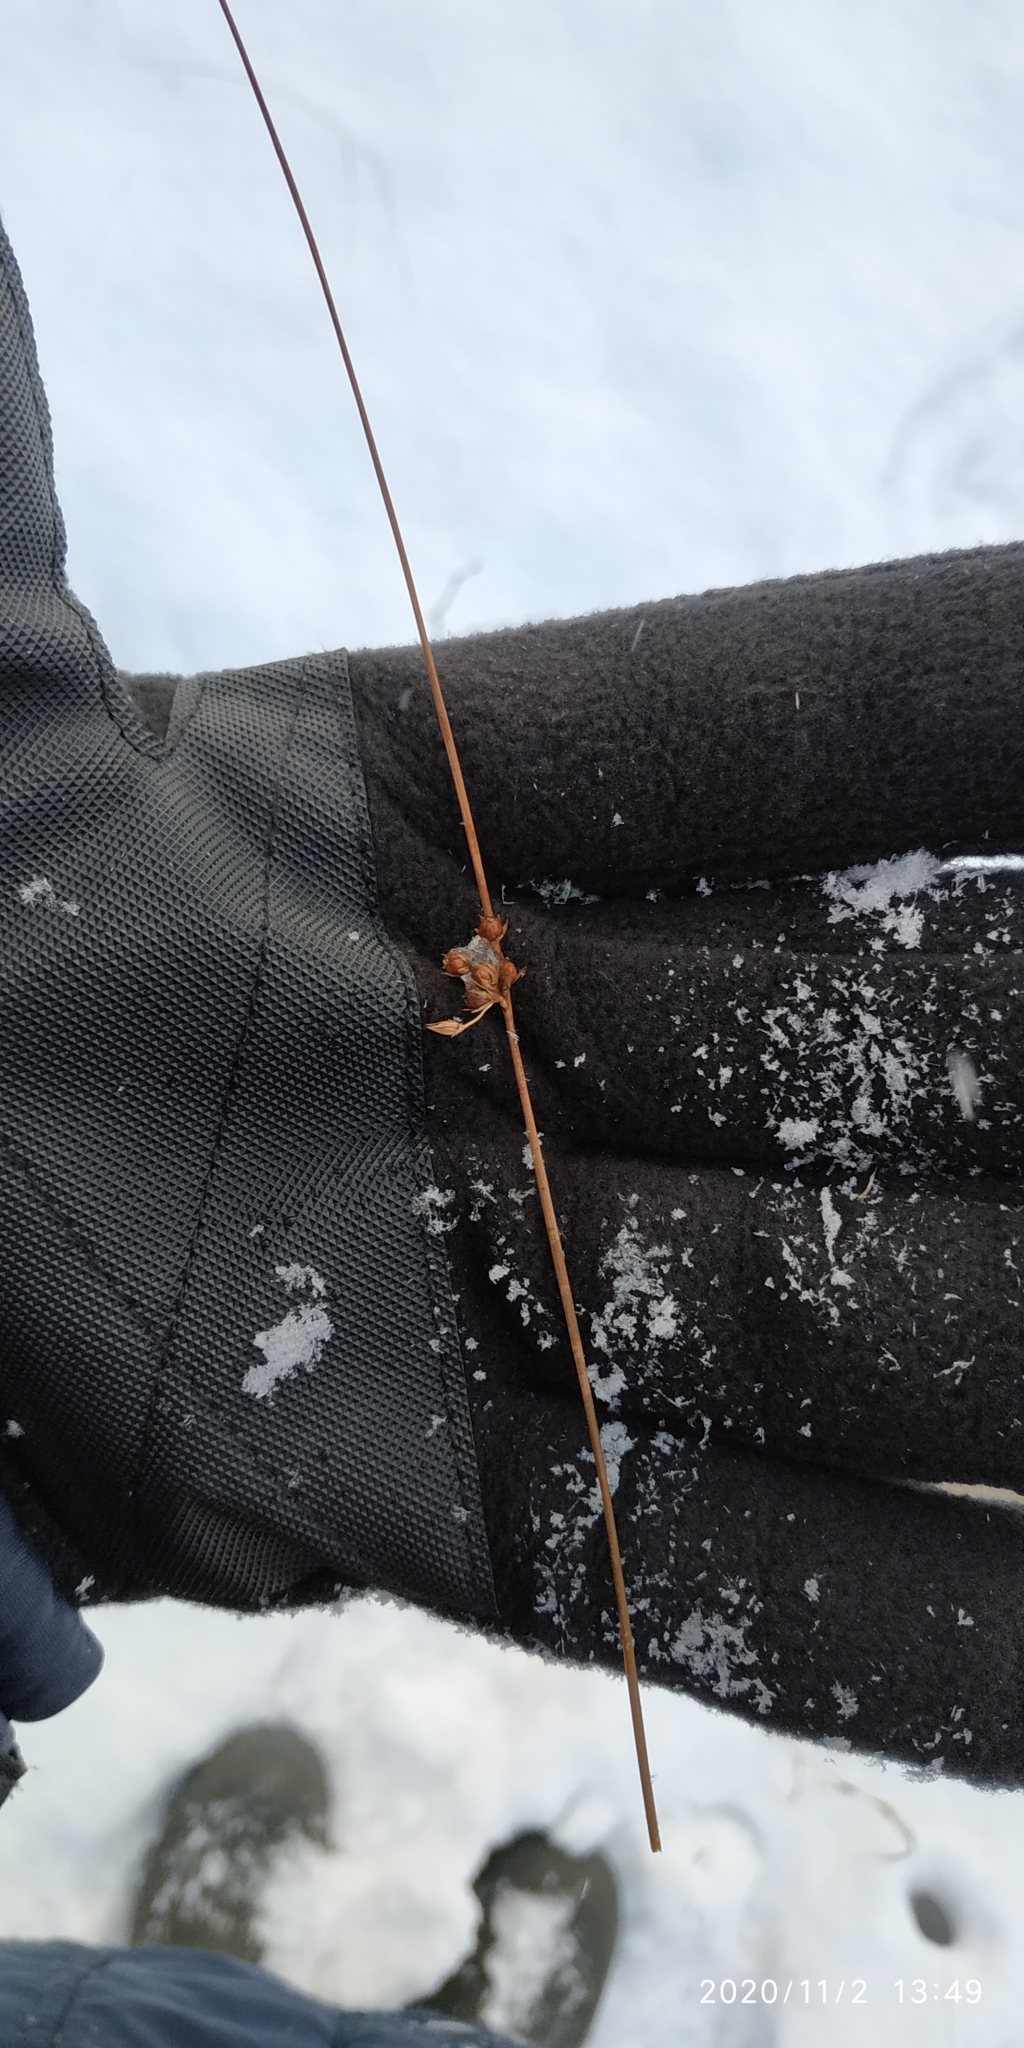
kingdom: Plantae
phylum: Tracheophyta
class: Liliopsida
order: Poales
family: Juncaceae
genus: Juncus
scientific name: Juncus filiformis
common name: Thread rush
